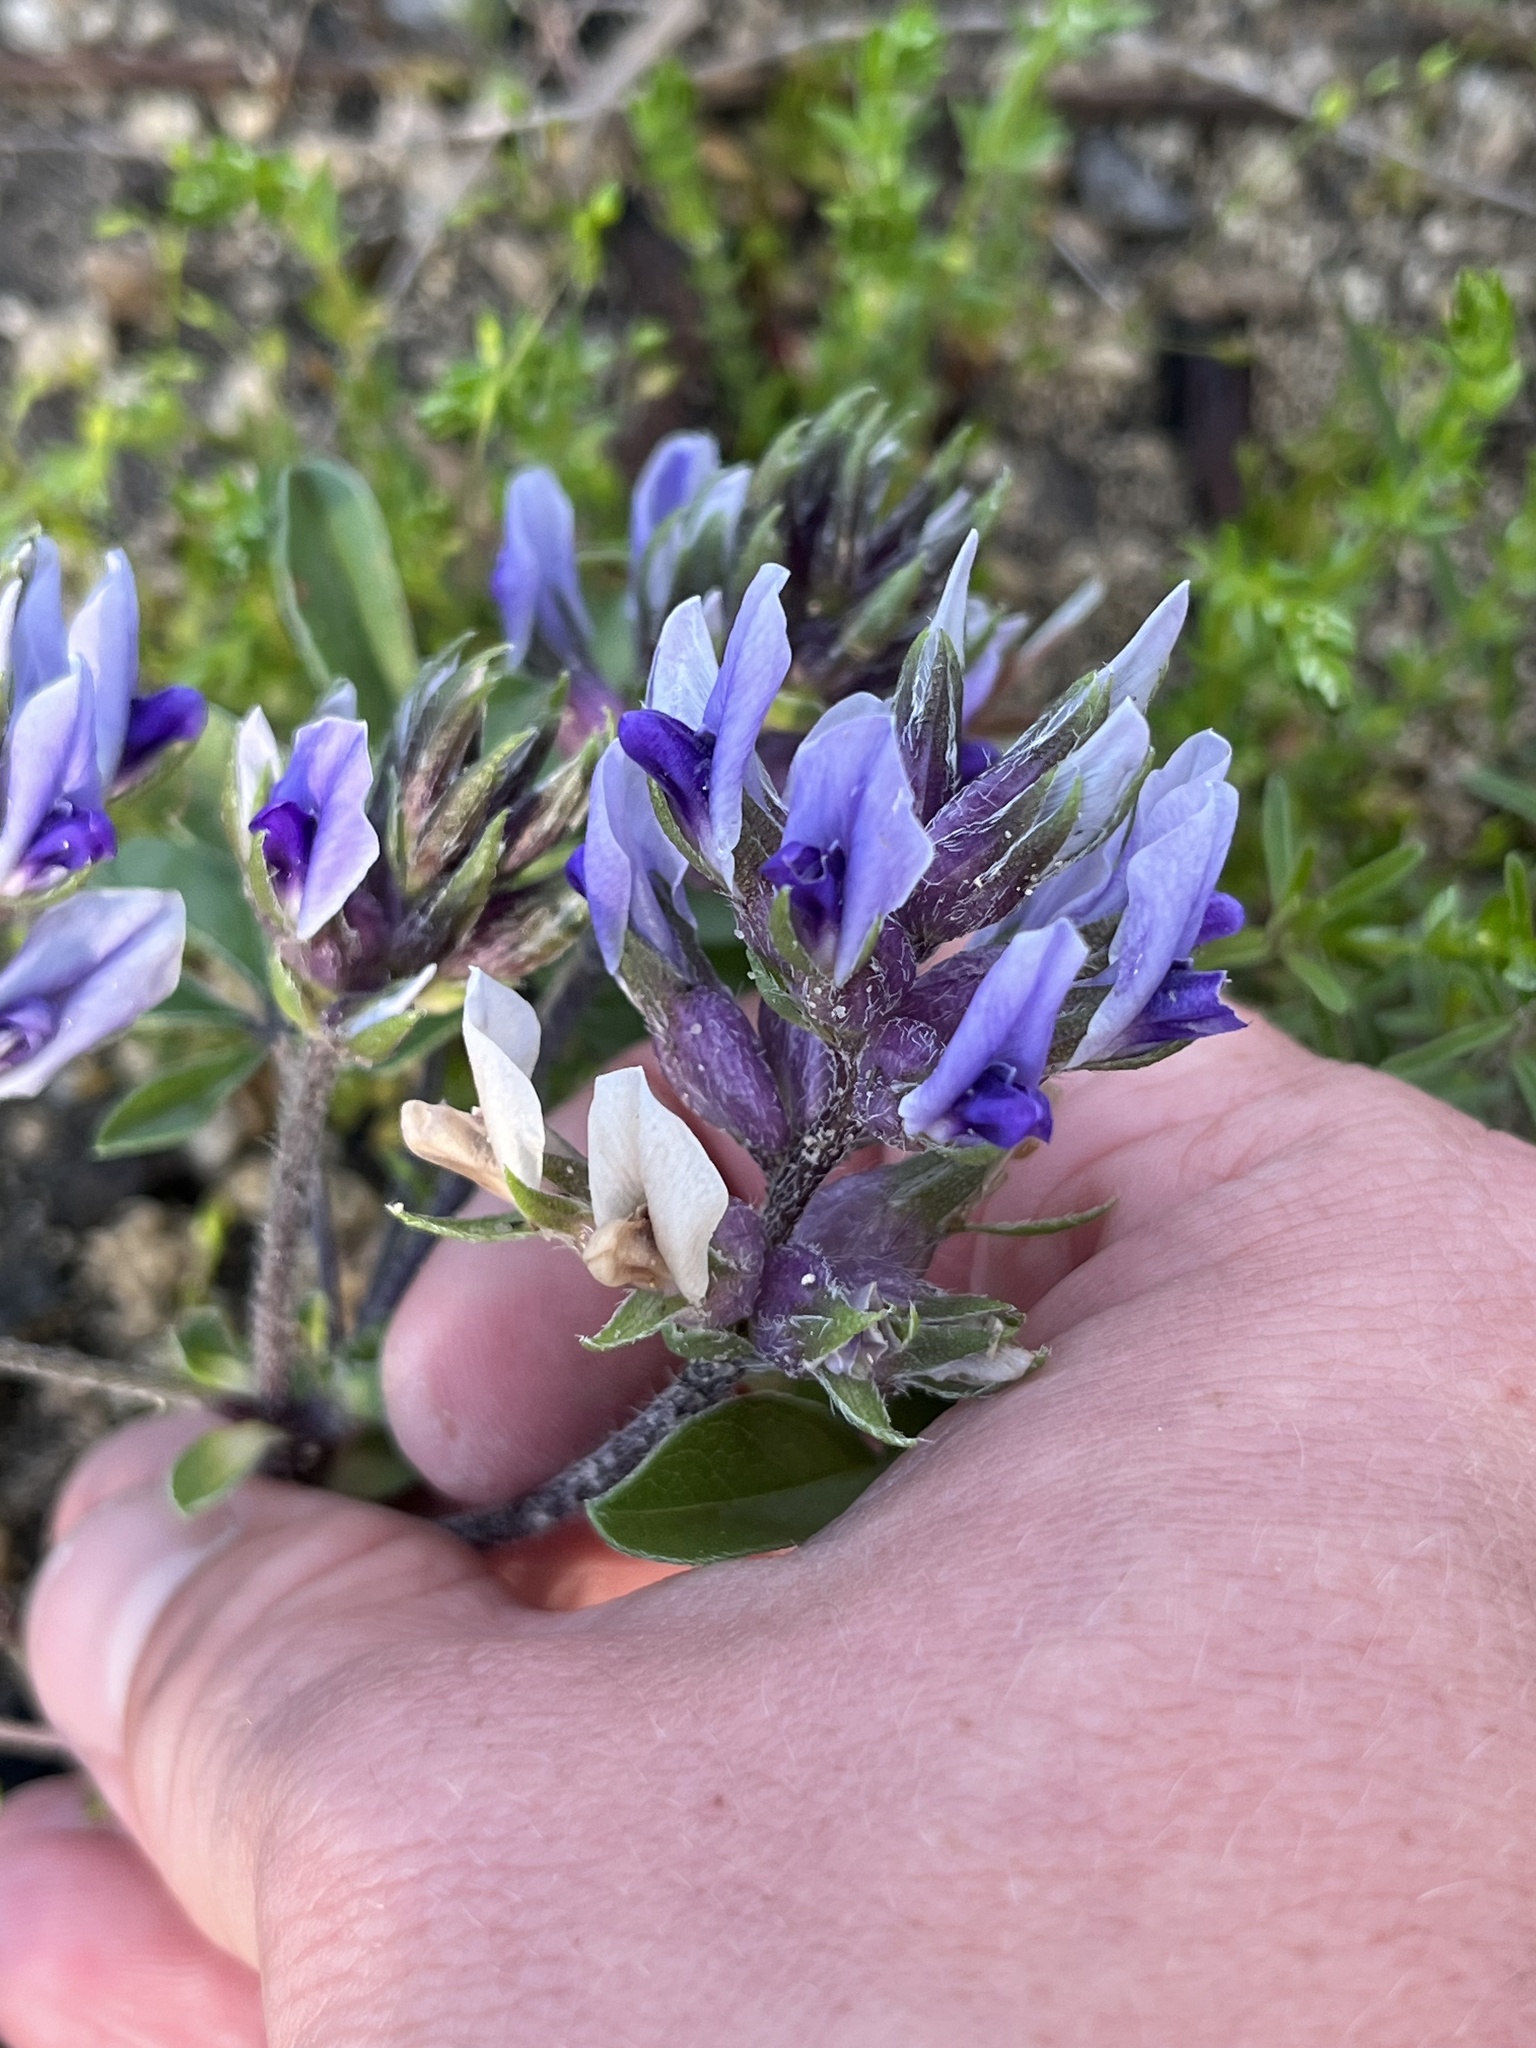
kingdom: Plantae
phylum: Tracheophyta
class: Magnoliopsida
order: Fabales
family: Fabaceae
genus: Pediomelum
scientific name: Pediomelum latestipulatum
